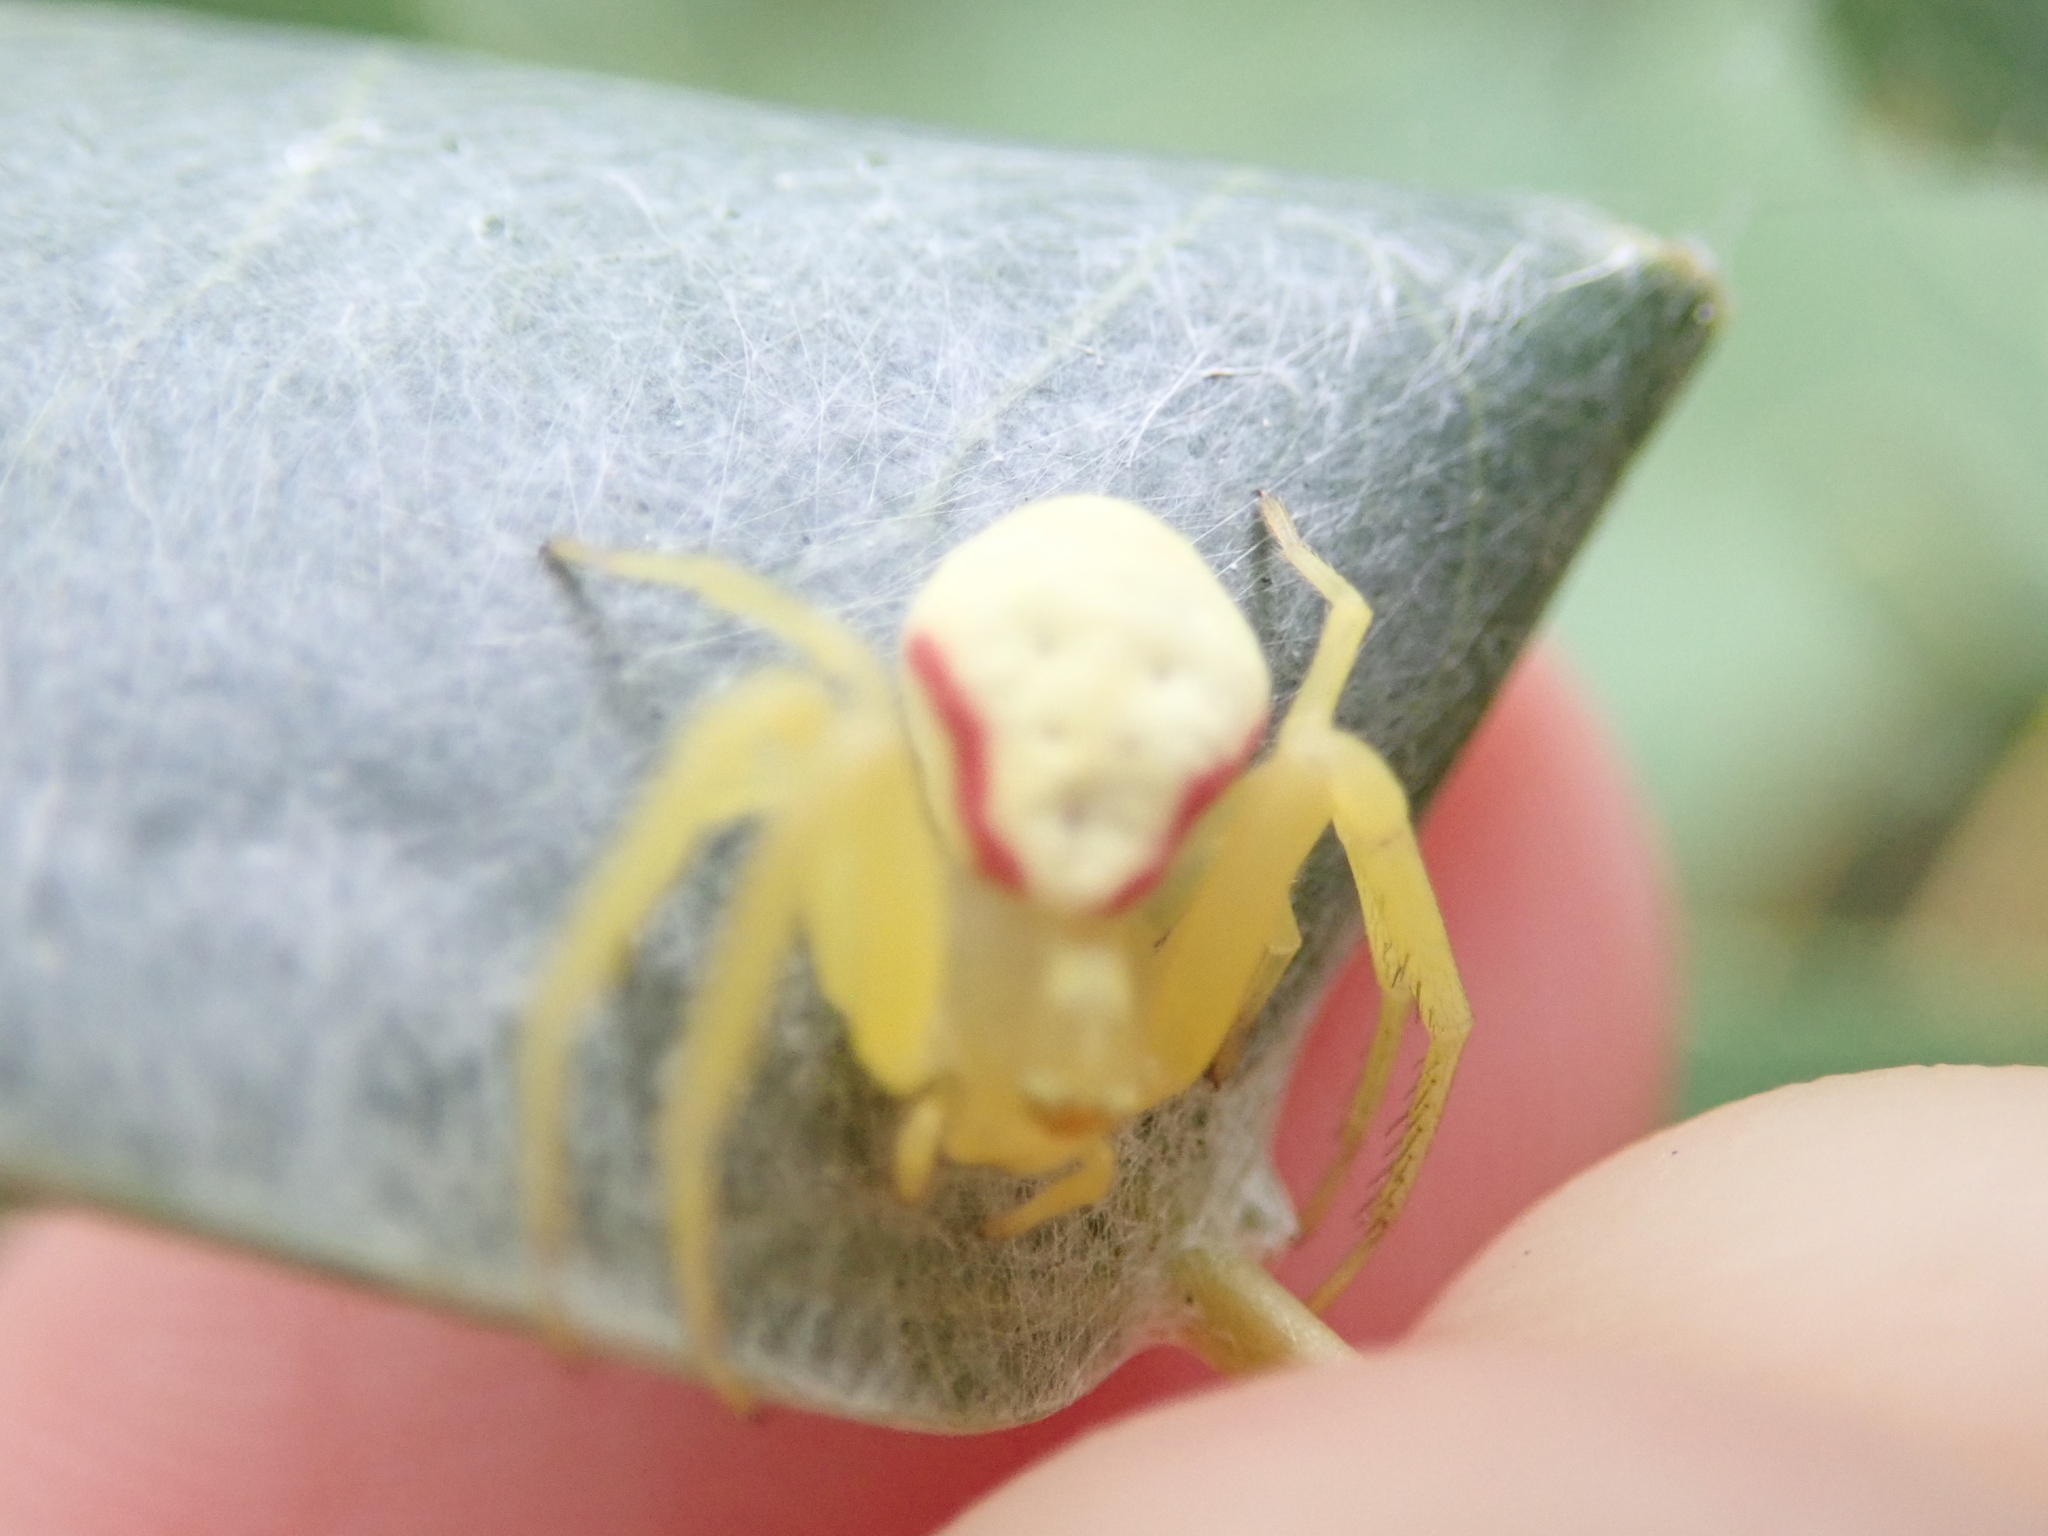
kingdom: Animalia
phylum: Arthropoda
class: Arachnida
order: Araneae
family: Thomisidae
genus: Misumena
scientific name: Misumena vatia
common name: Goldenrod crab spider
